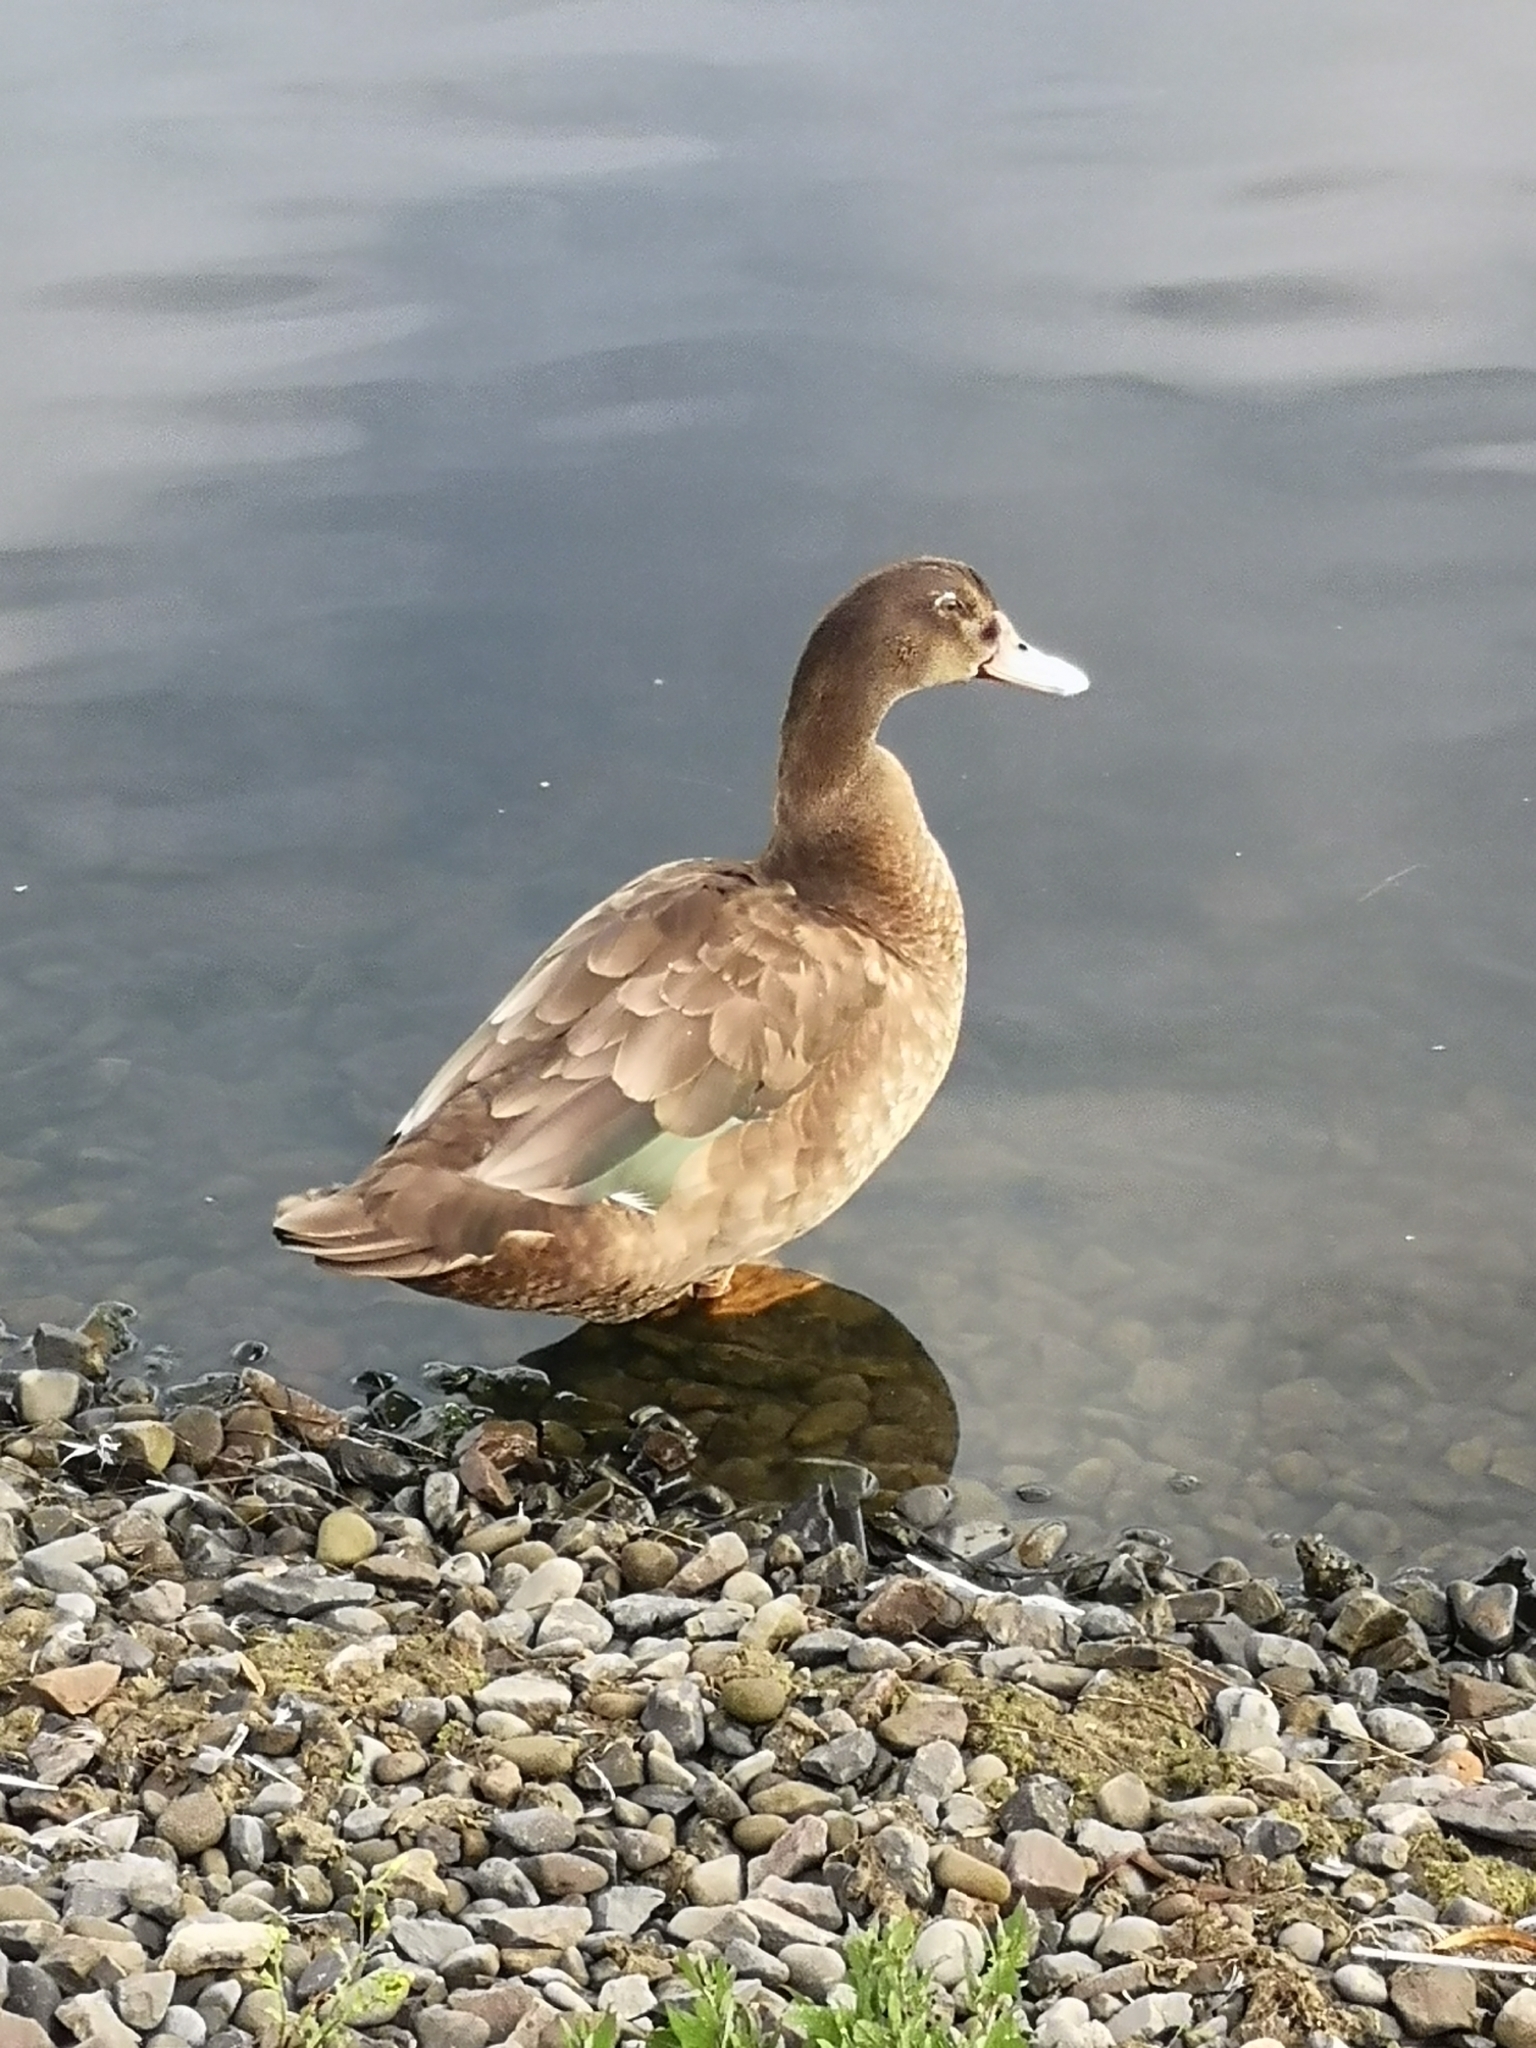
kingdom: Animalia
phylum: Chordata
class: Aves
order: Anseriformes
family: Anatidae
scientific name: Anatidae
